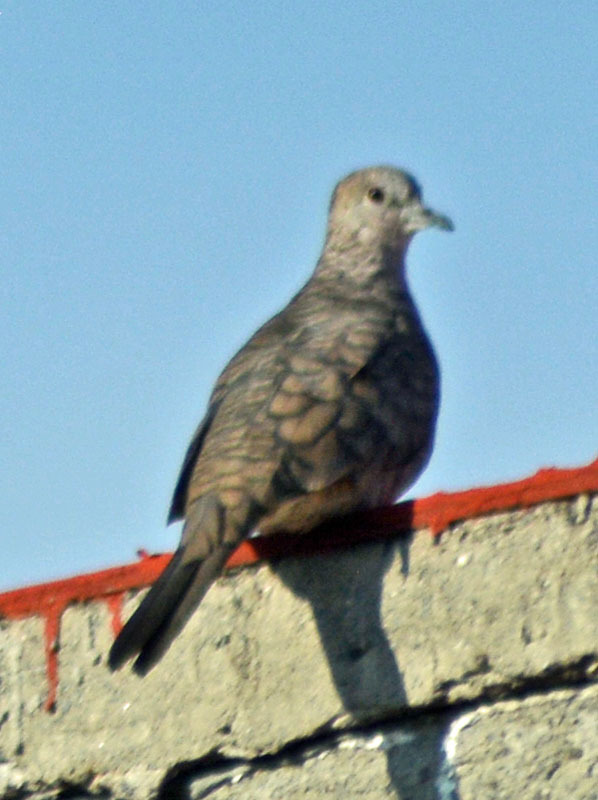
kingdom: Animalia
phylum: Chordata
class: Aves
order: Columbiformes
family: Columbidae
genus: Columbina
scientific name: Columbina inca
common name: Inca dove
